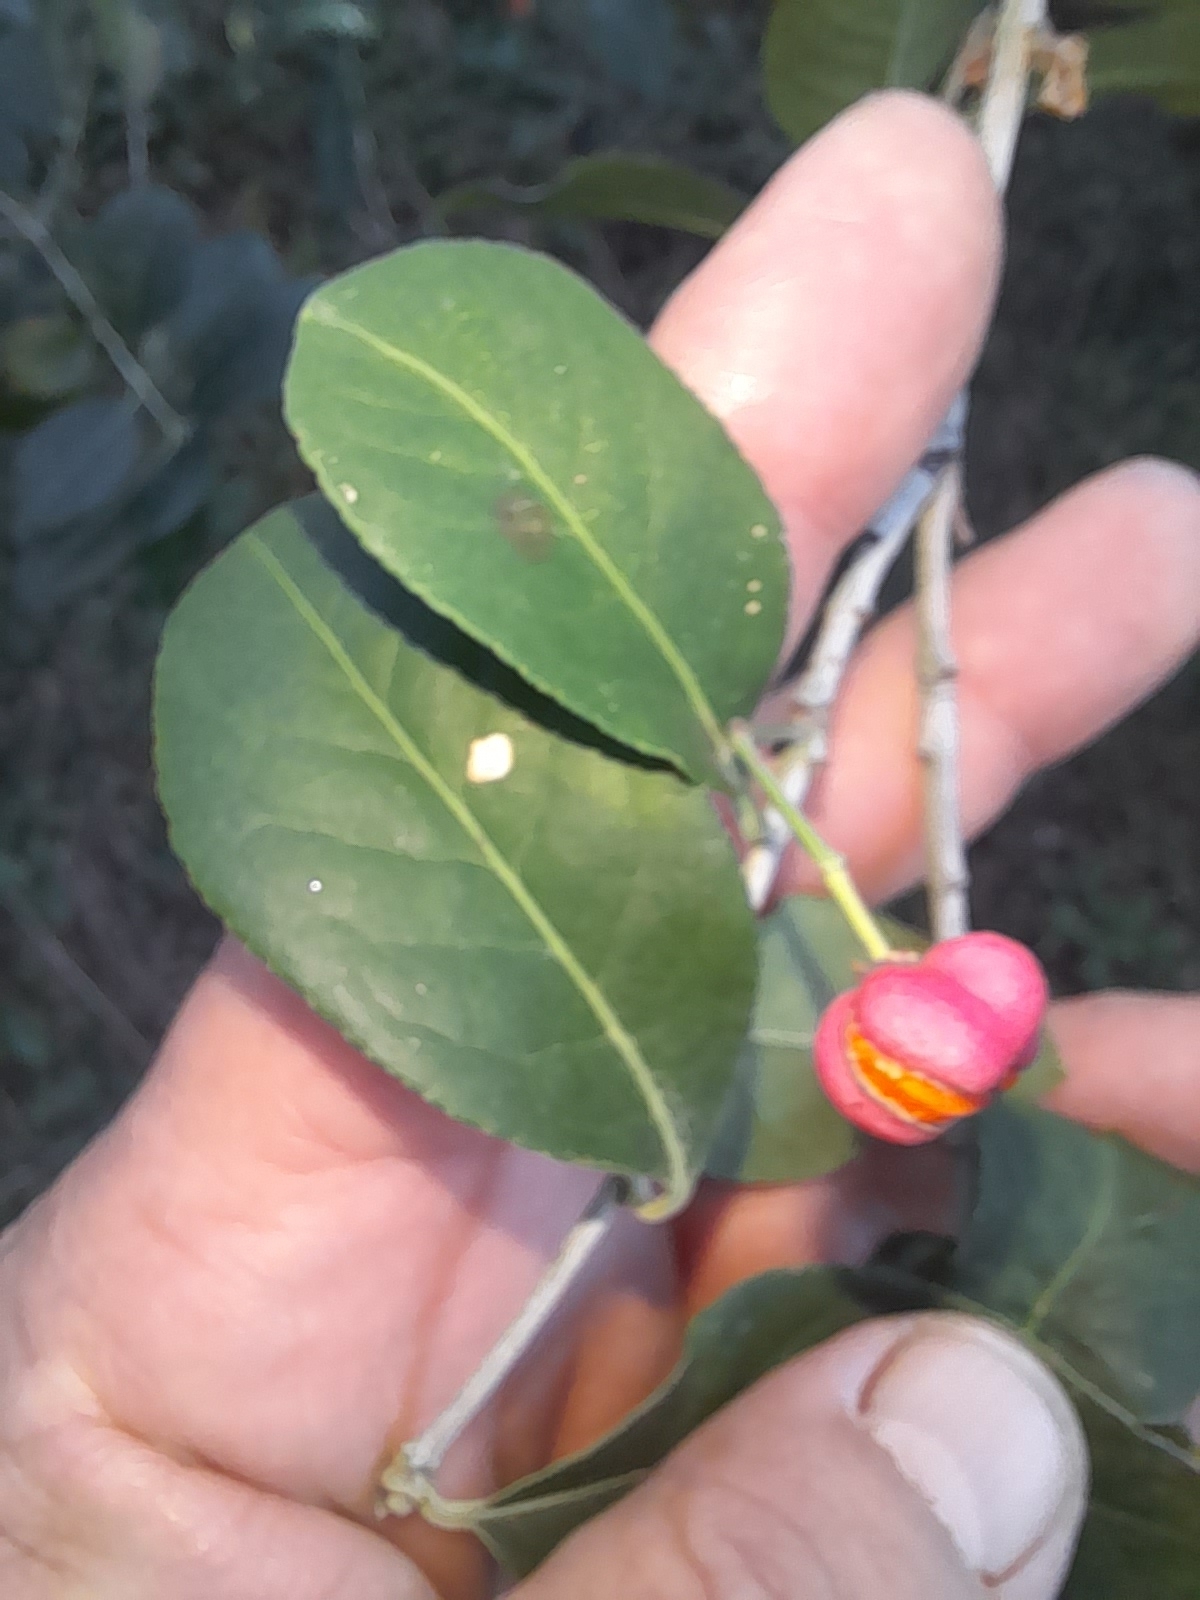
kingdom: Plantae
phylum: Tracheophyta
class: Magnoliopsida
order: Celastrales
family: Celastraceae
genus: Euonymus
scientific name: Euonymus europaeus
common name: Spindle
